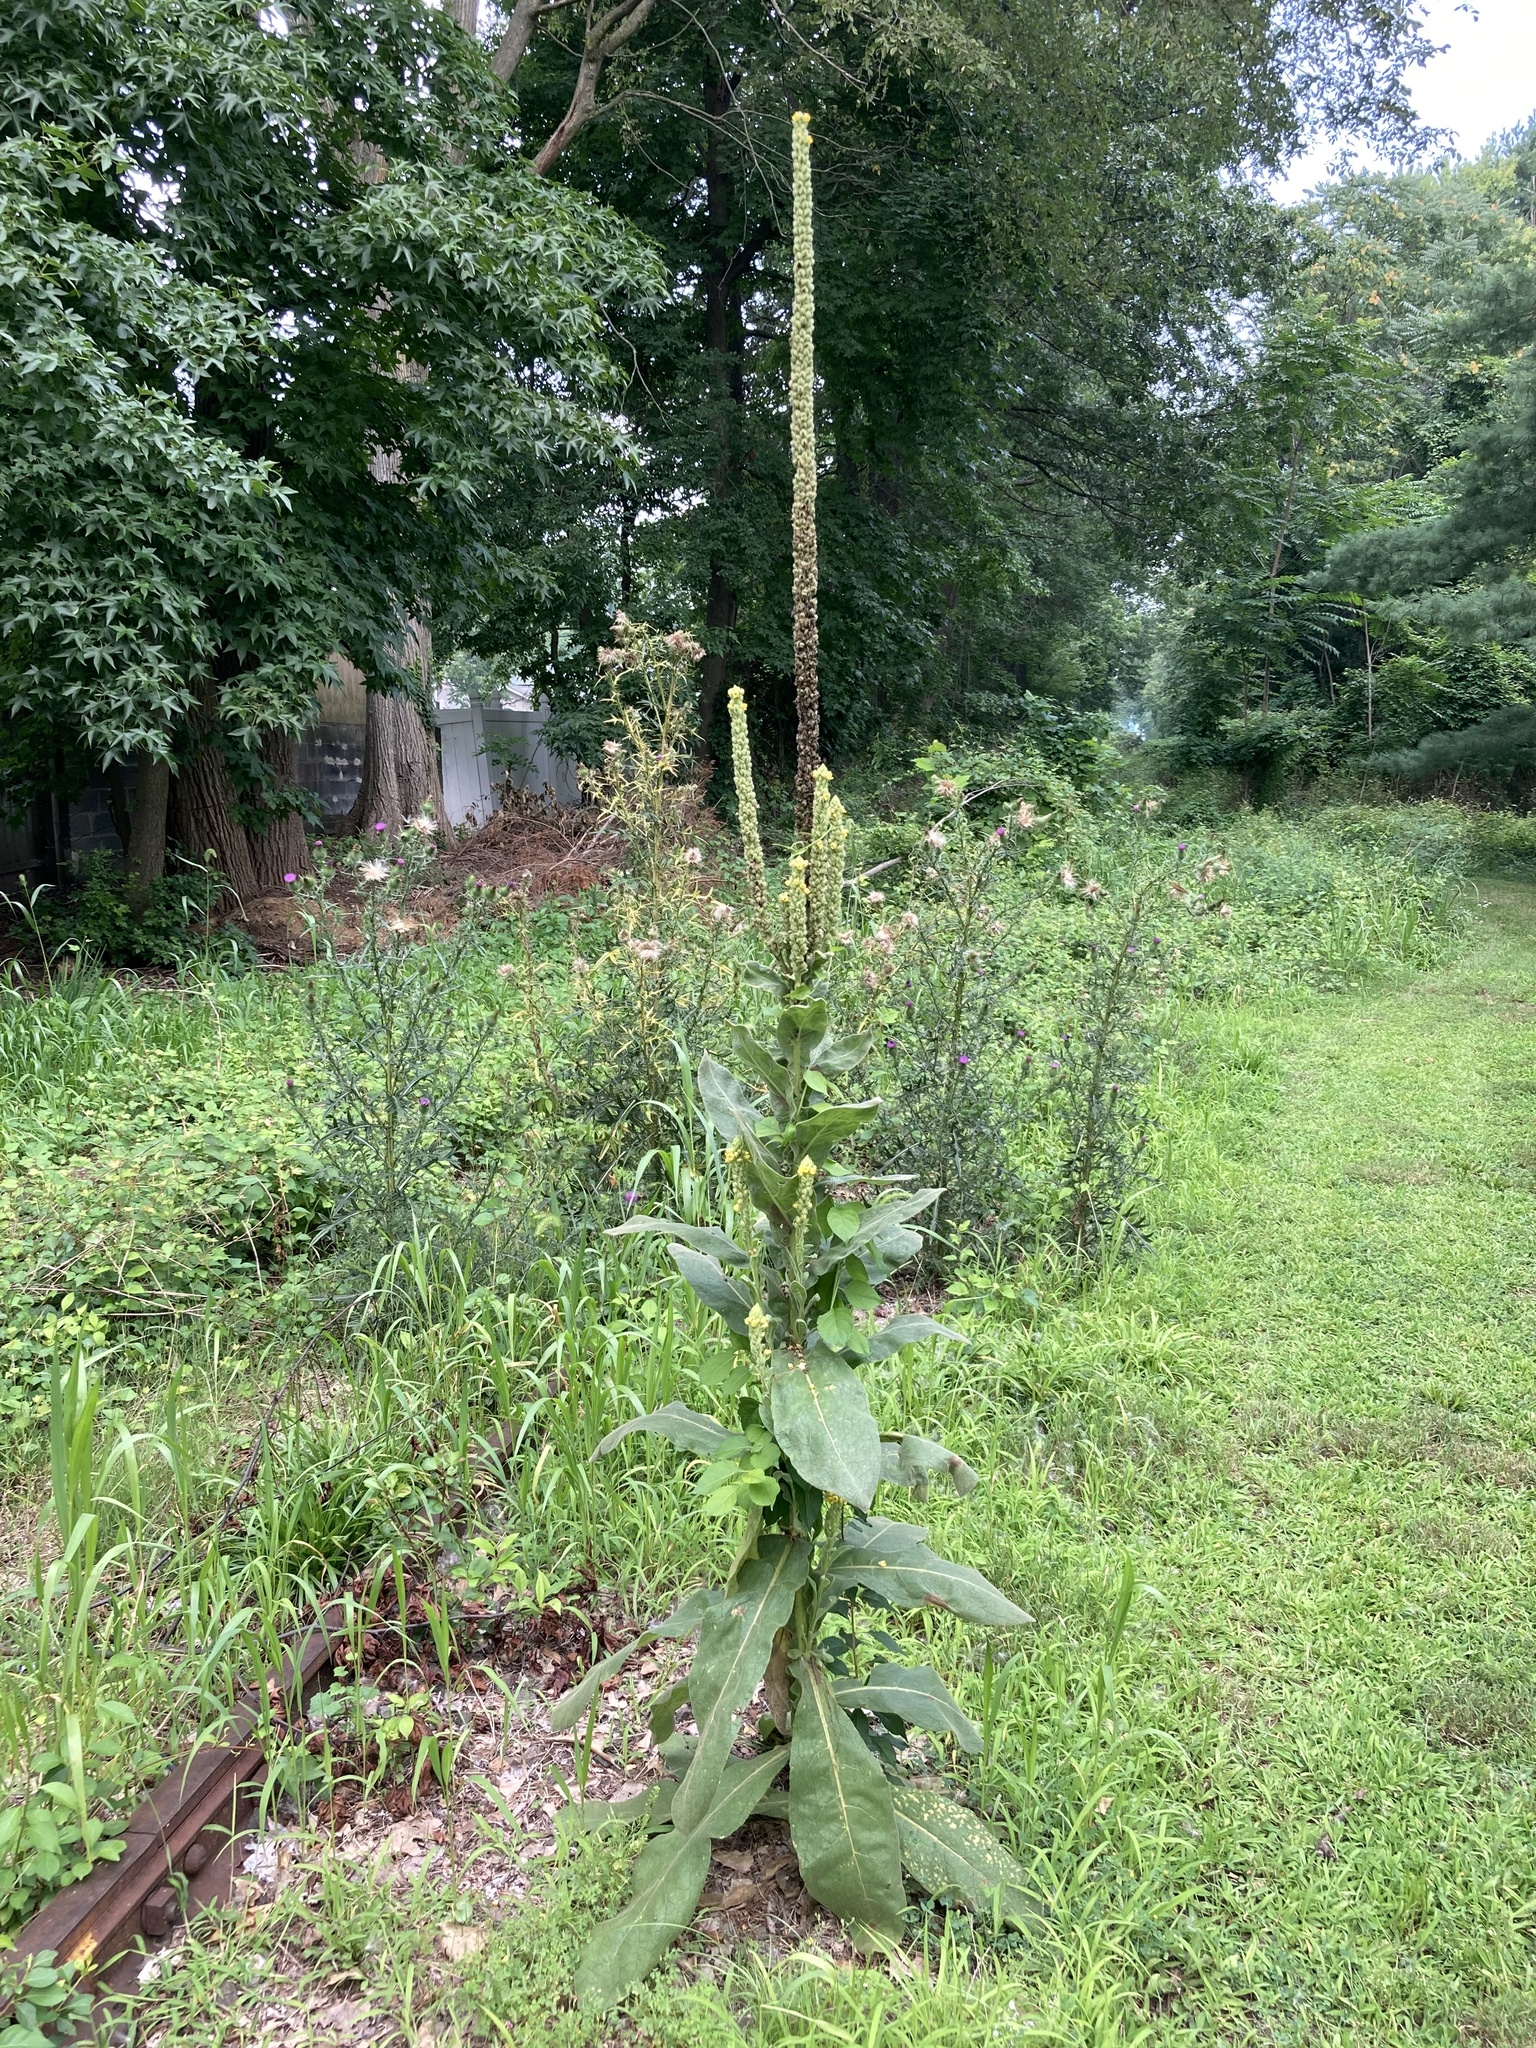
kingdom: Plantae
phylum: Tracheophyta
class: Magnoliopsida
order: Lamiales
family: Scrophulariaceae
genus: Verbascum
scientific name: Verbascum thapsus
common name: Common mullein
